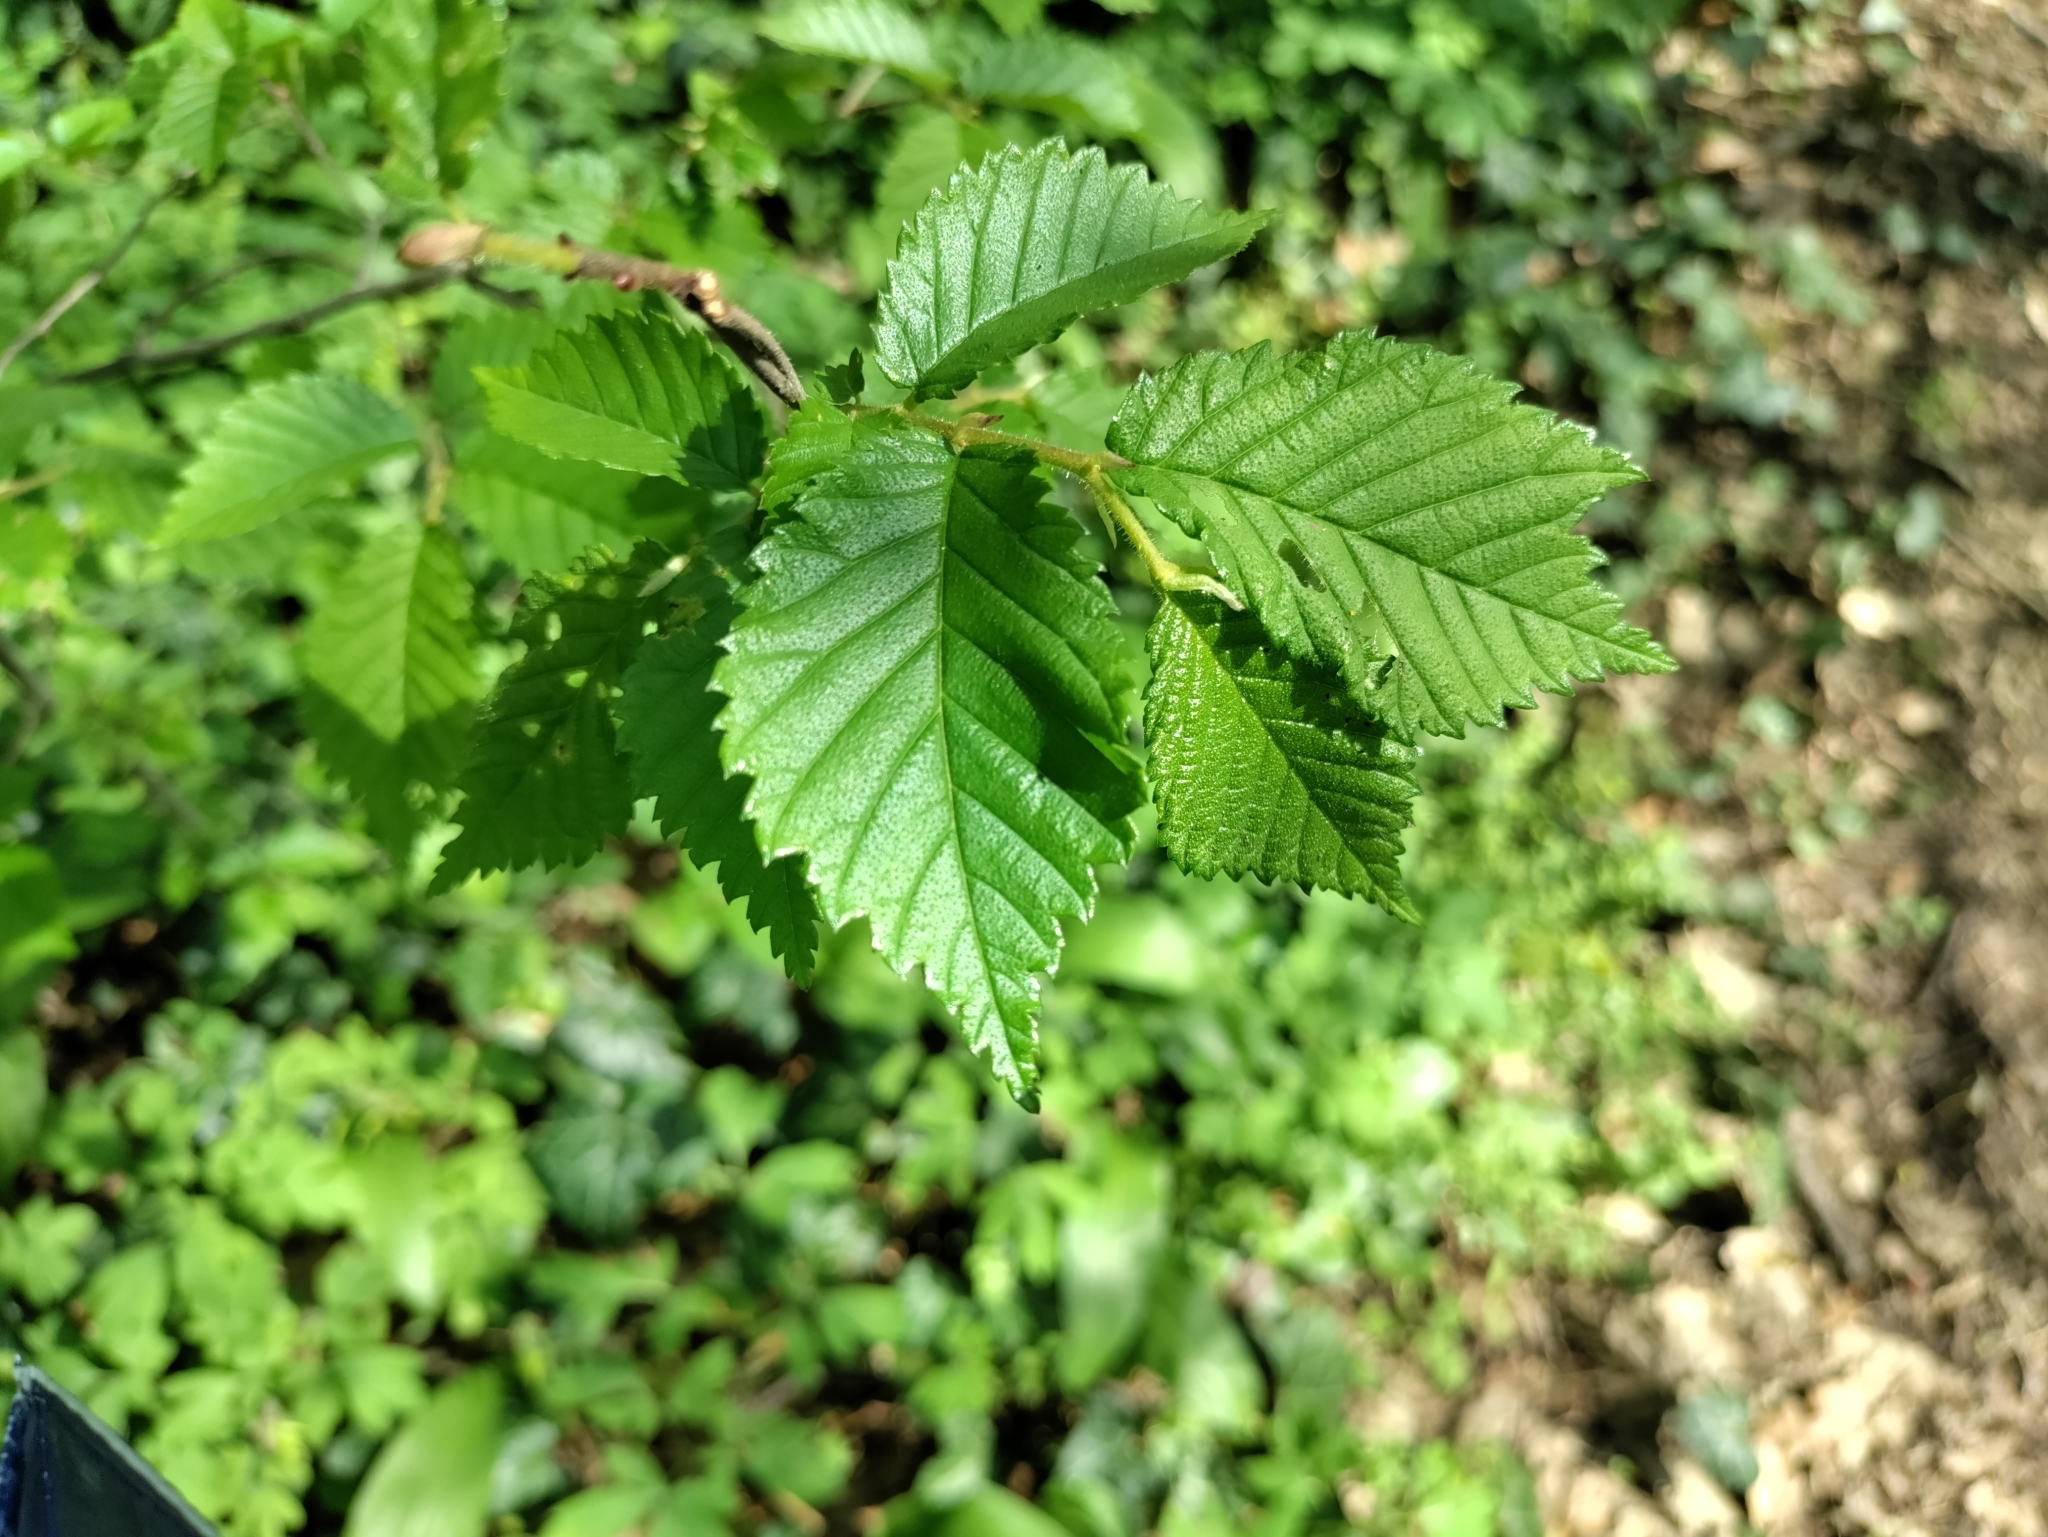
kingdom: Plantae
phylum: Tracheophyta
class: Magnoliopsida
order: Rosales
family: Ulmaceae
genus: Ulmus
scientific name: Ulmus glabra
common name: Wych elm
